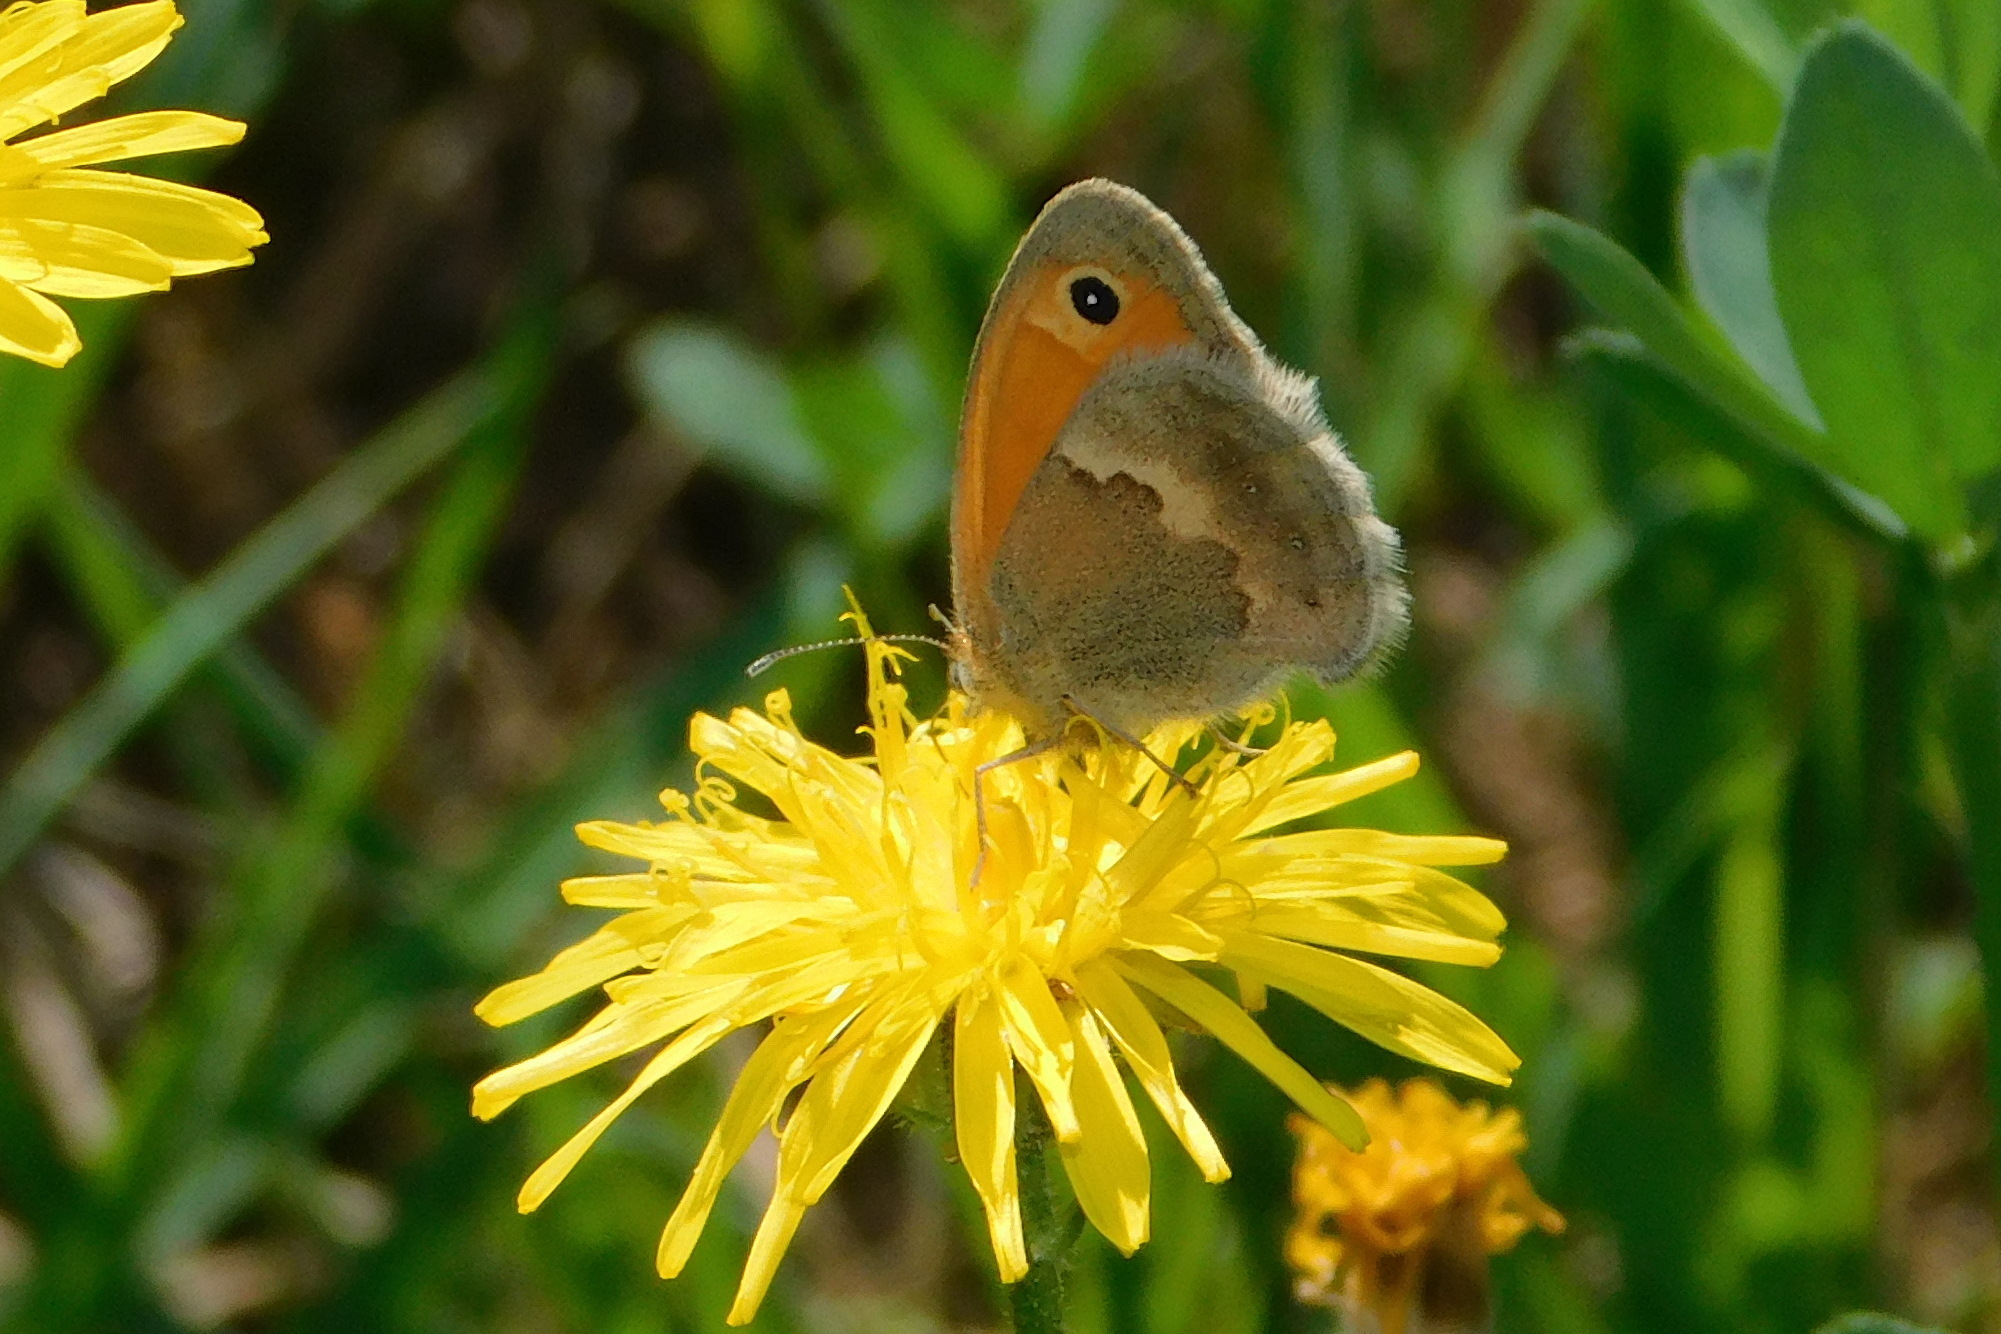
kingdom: Animalia
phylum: Arthropoda
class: Insecta
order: Lepidoptera
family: Nymphalidae
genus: Coenonympha
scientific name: Coenonympha pamphilus
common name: Small heath
